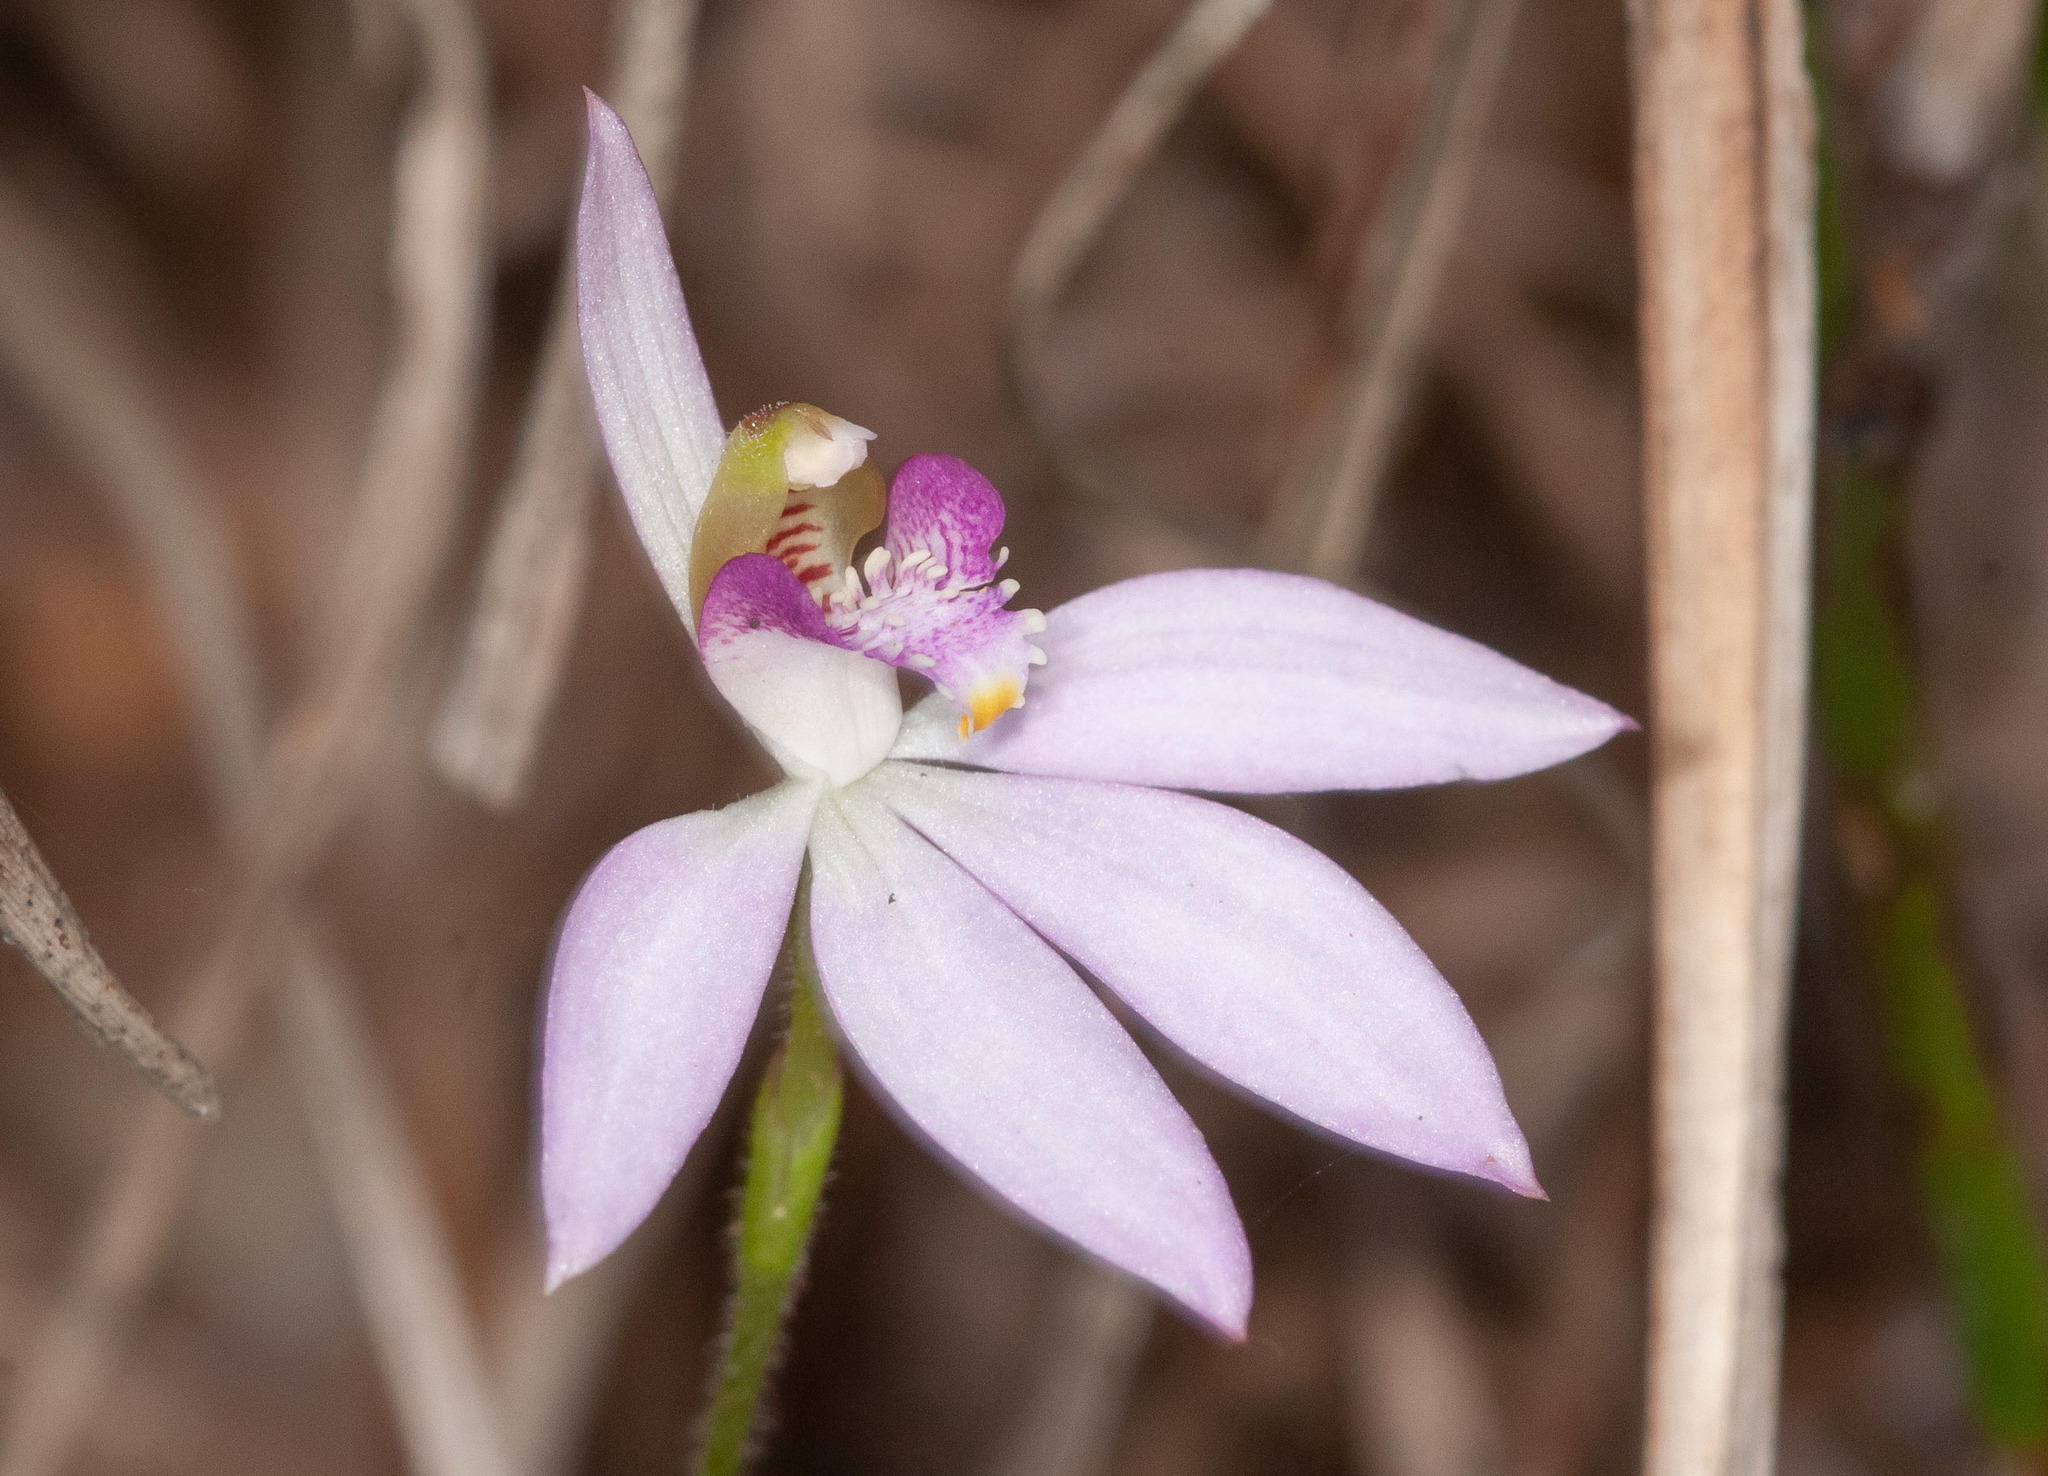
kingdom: Plantae
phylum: Tracheophyta
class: Liliopsida
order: Asparagales
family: Orchidaceae
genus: Caladenia
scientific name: Caladenia carnea
